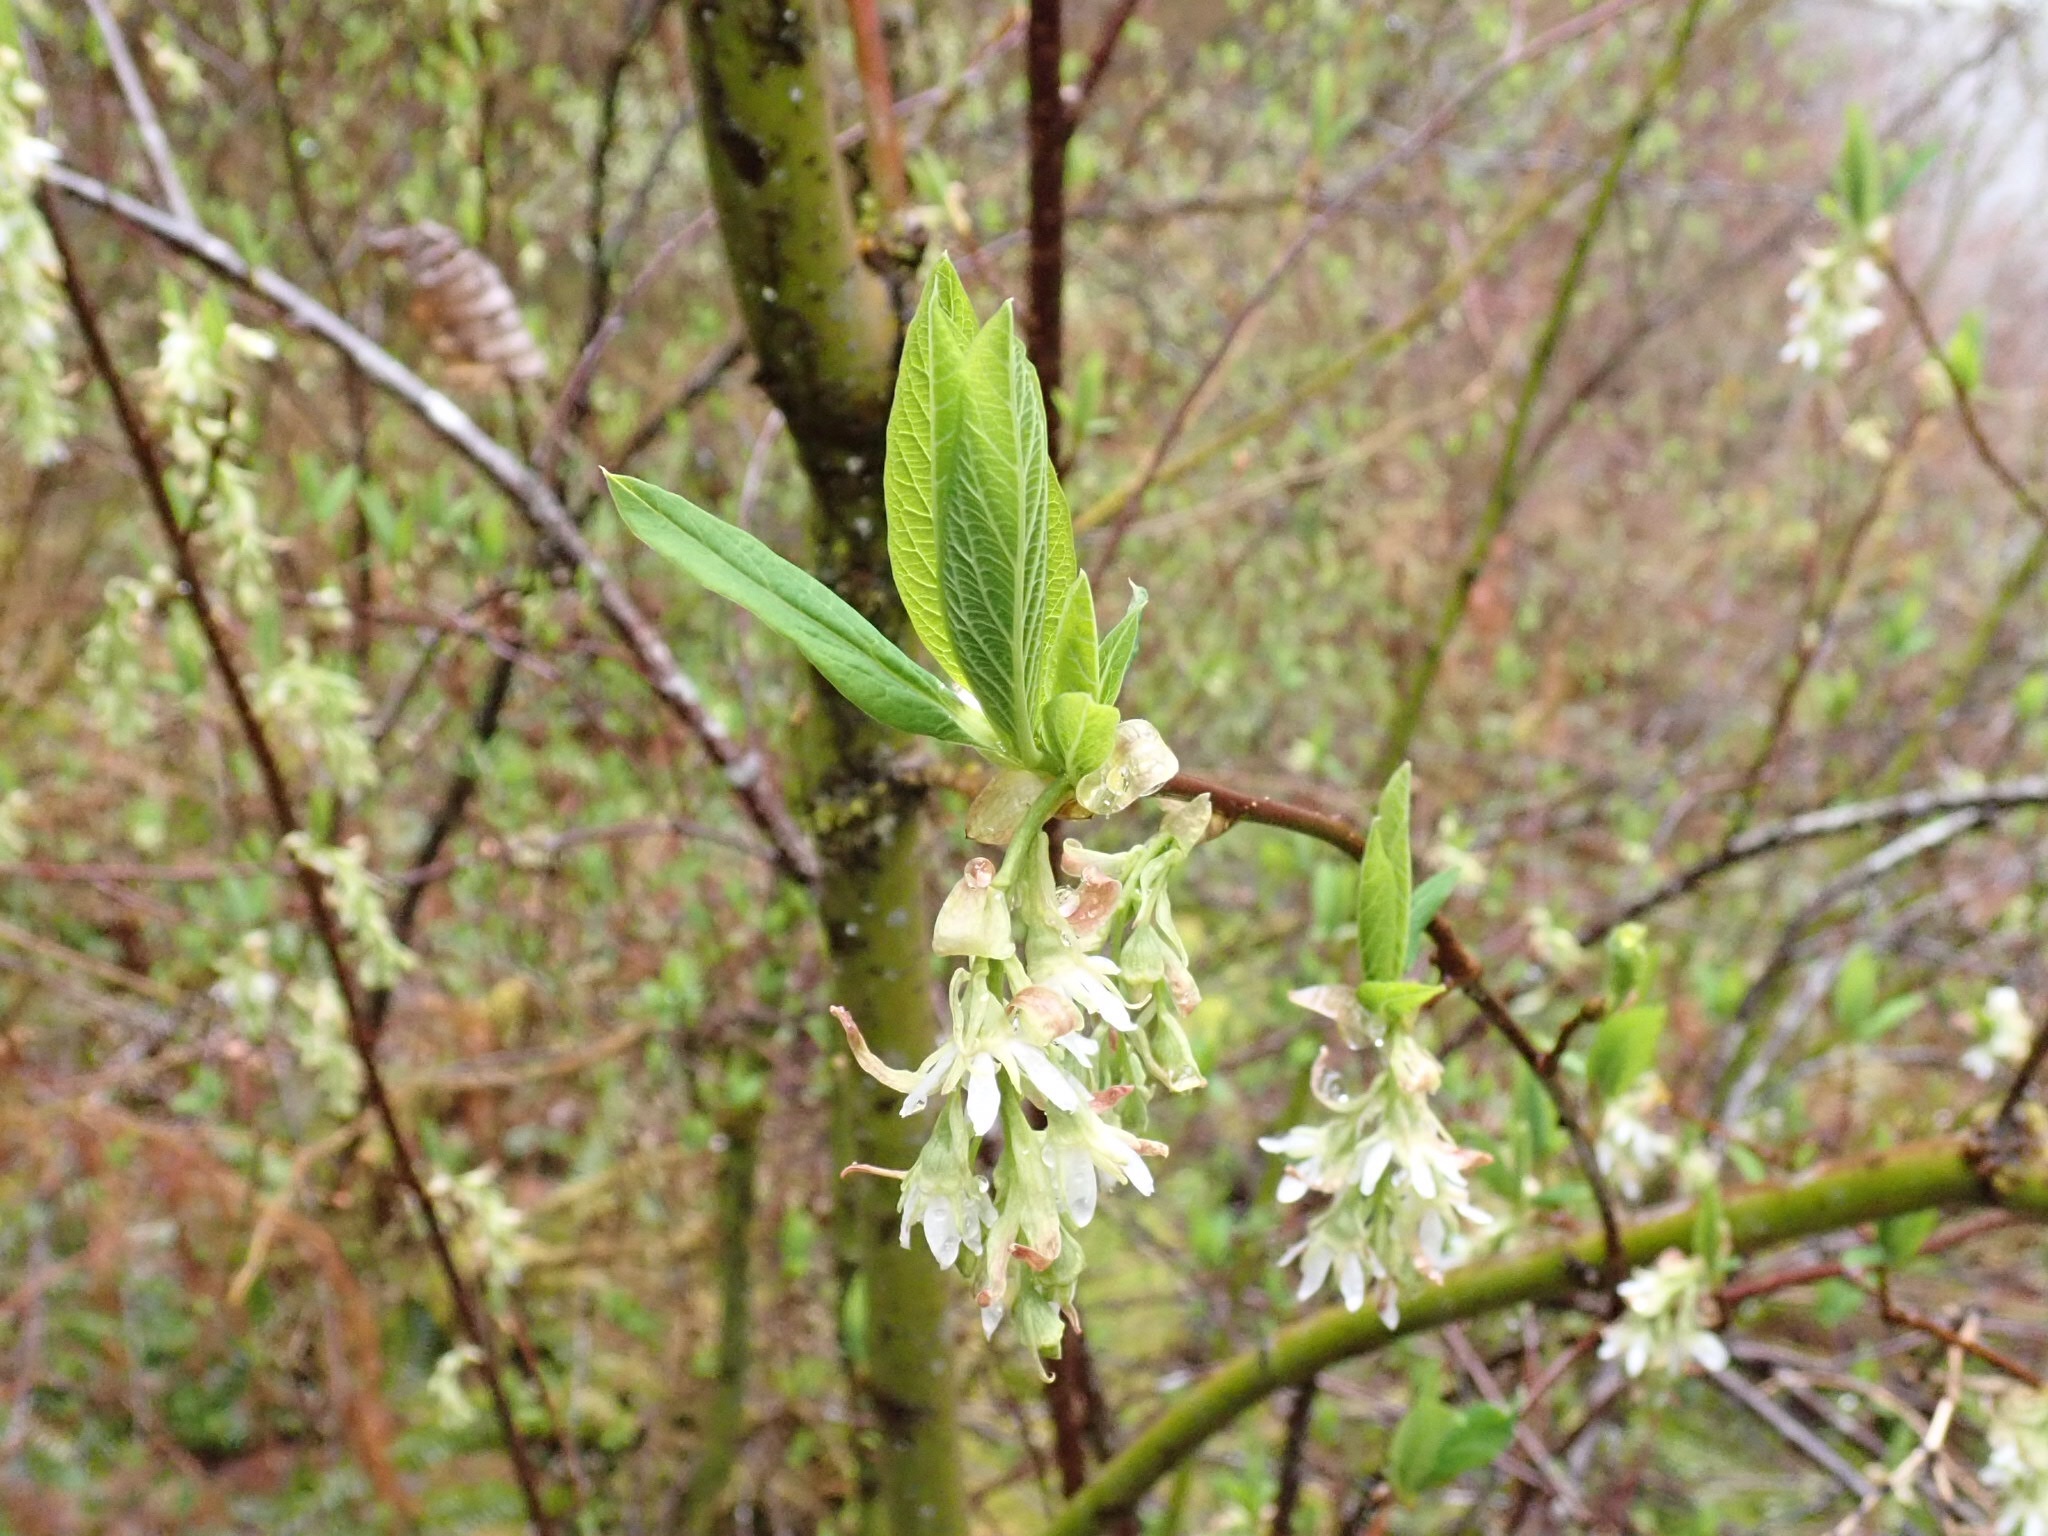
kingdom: Plantae
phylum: Tracheophyta
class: Magnoliopsida
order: Rosales
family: Rosaceae
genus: Oemleria
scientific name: Oemleria cerasiformis
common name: Osoberry
